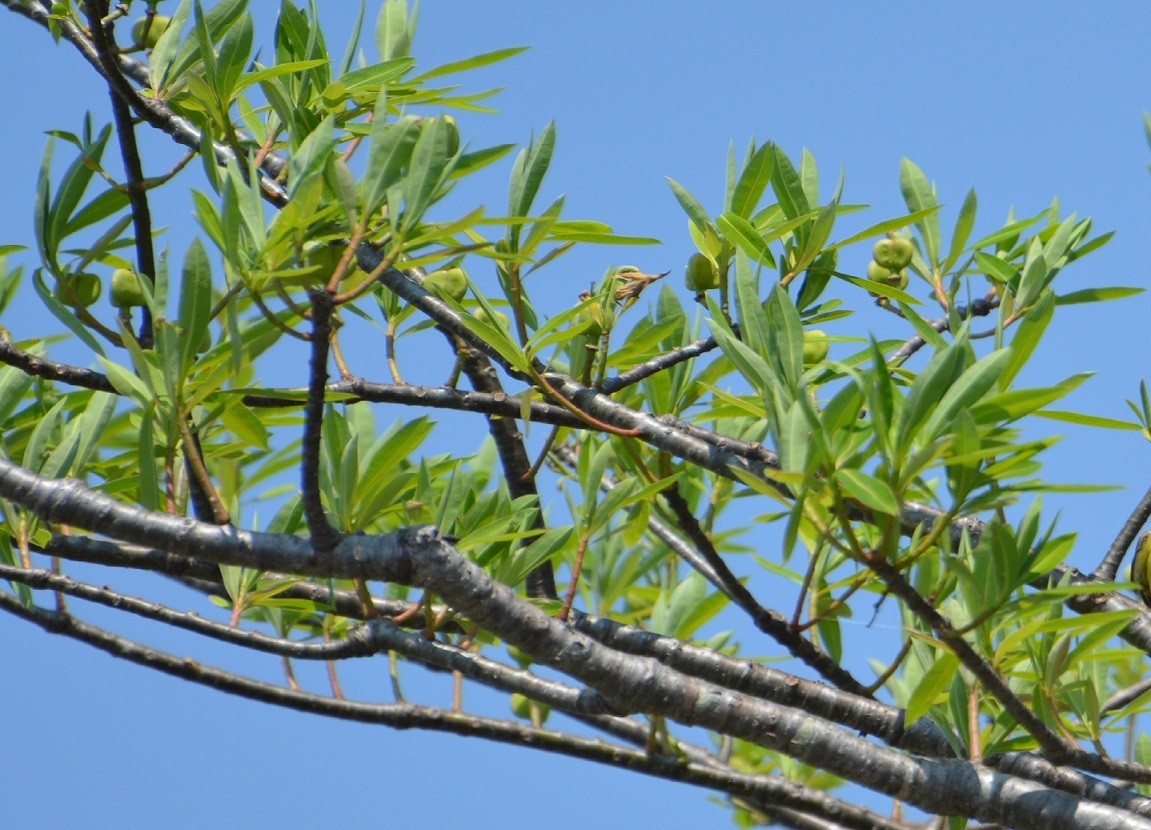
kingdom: Plantae
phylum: Tracheophyta
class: Magnoliopsida
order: Malpighiales
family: Euphorbiaceae
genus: Euphorbia
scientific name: Euphorbia lundelliana
